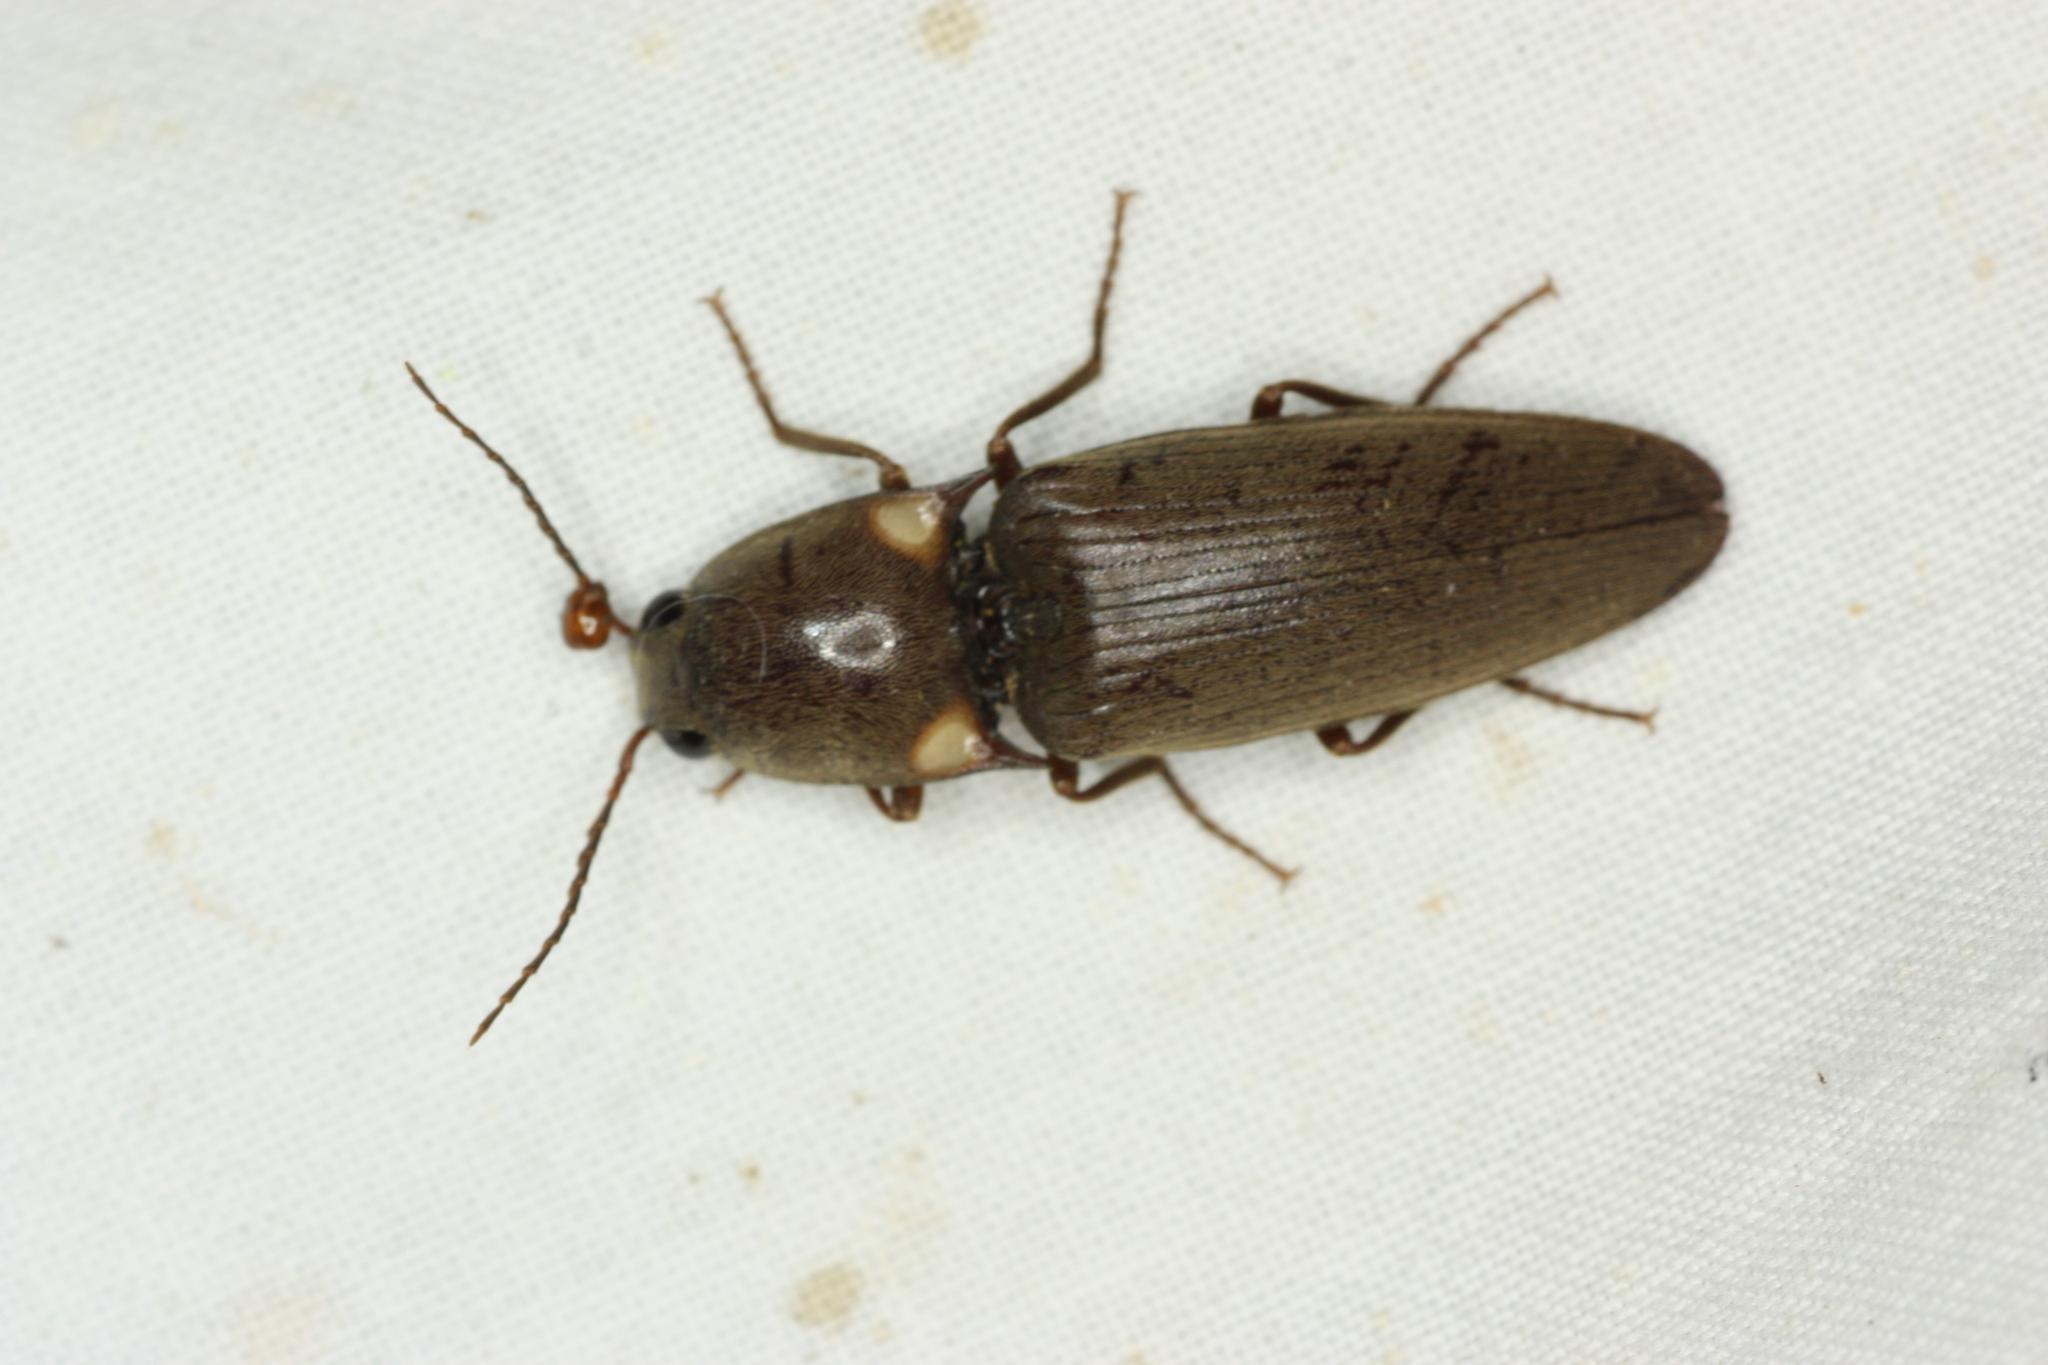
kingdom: Animalia
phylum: Arthropoda
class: Insecta
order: Coleoptera
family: Elateridae
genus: Deilelater
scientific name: Deilelater
